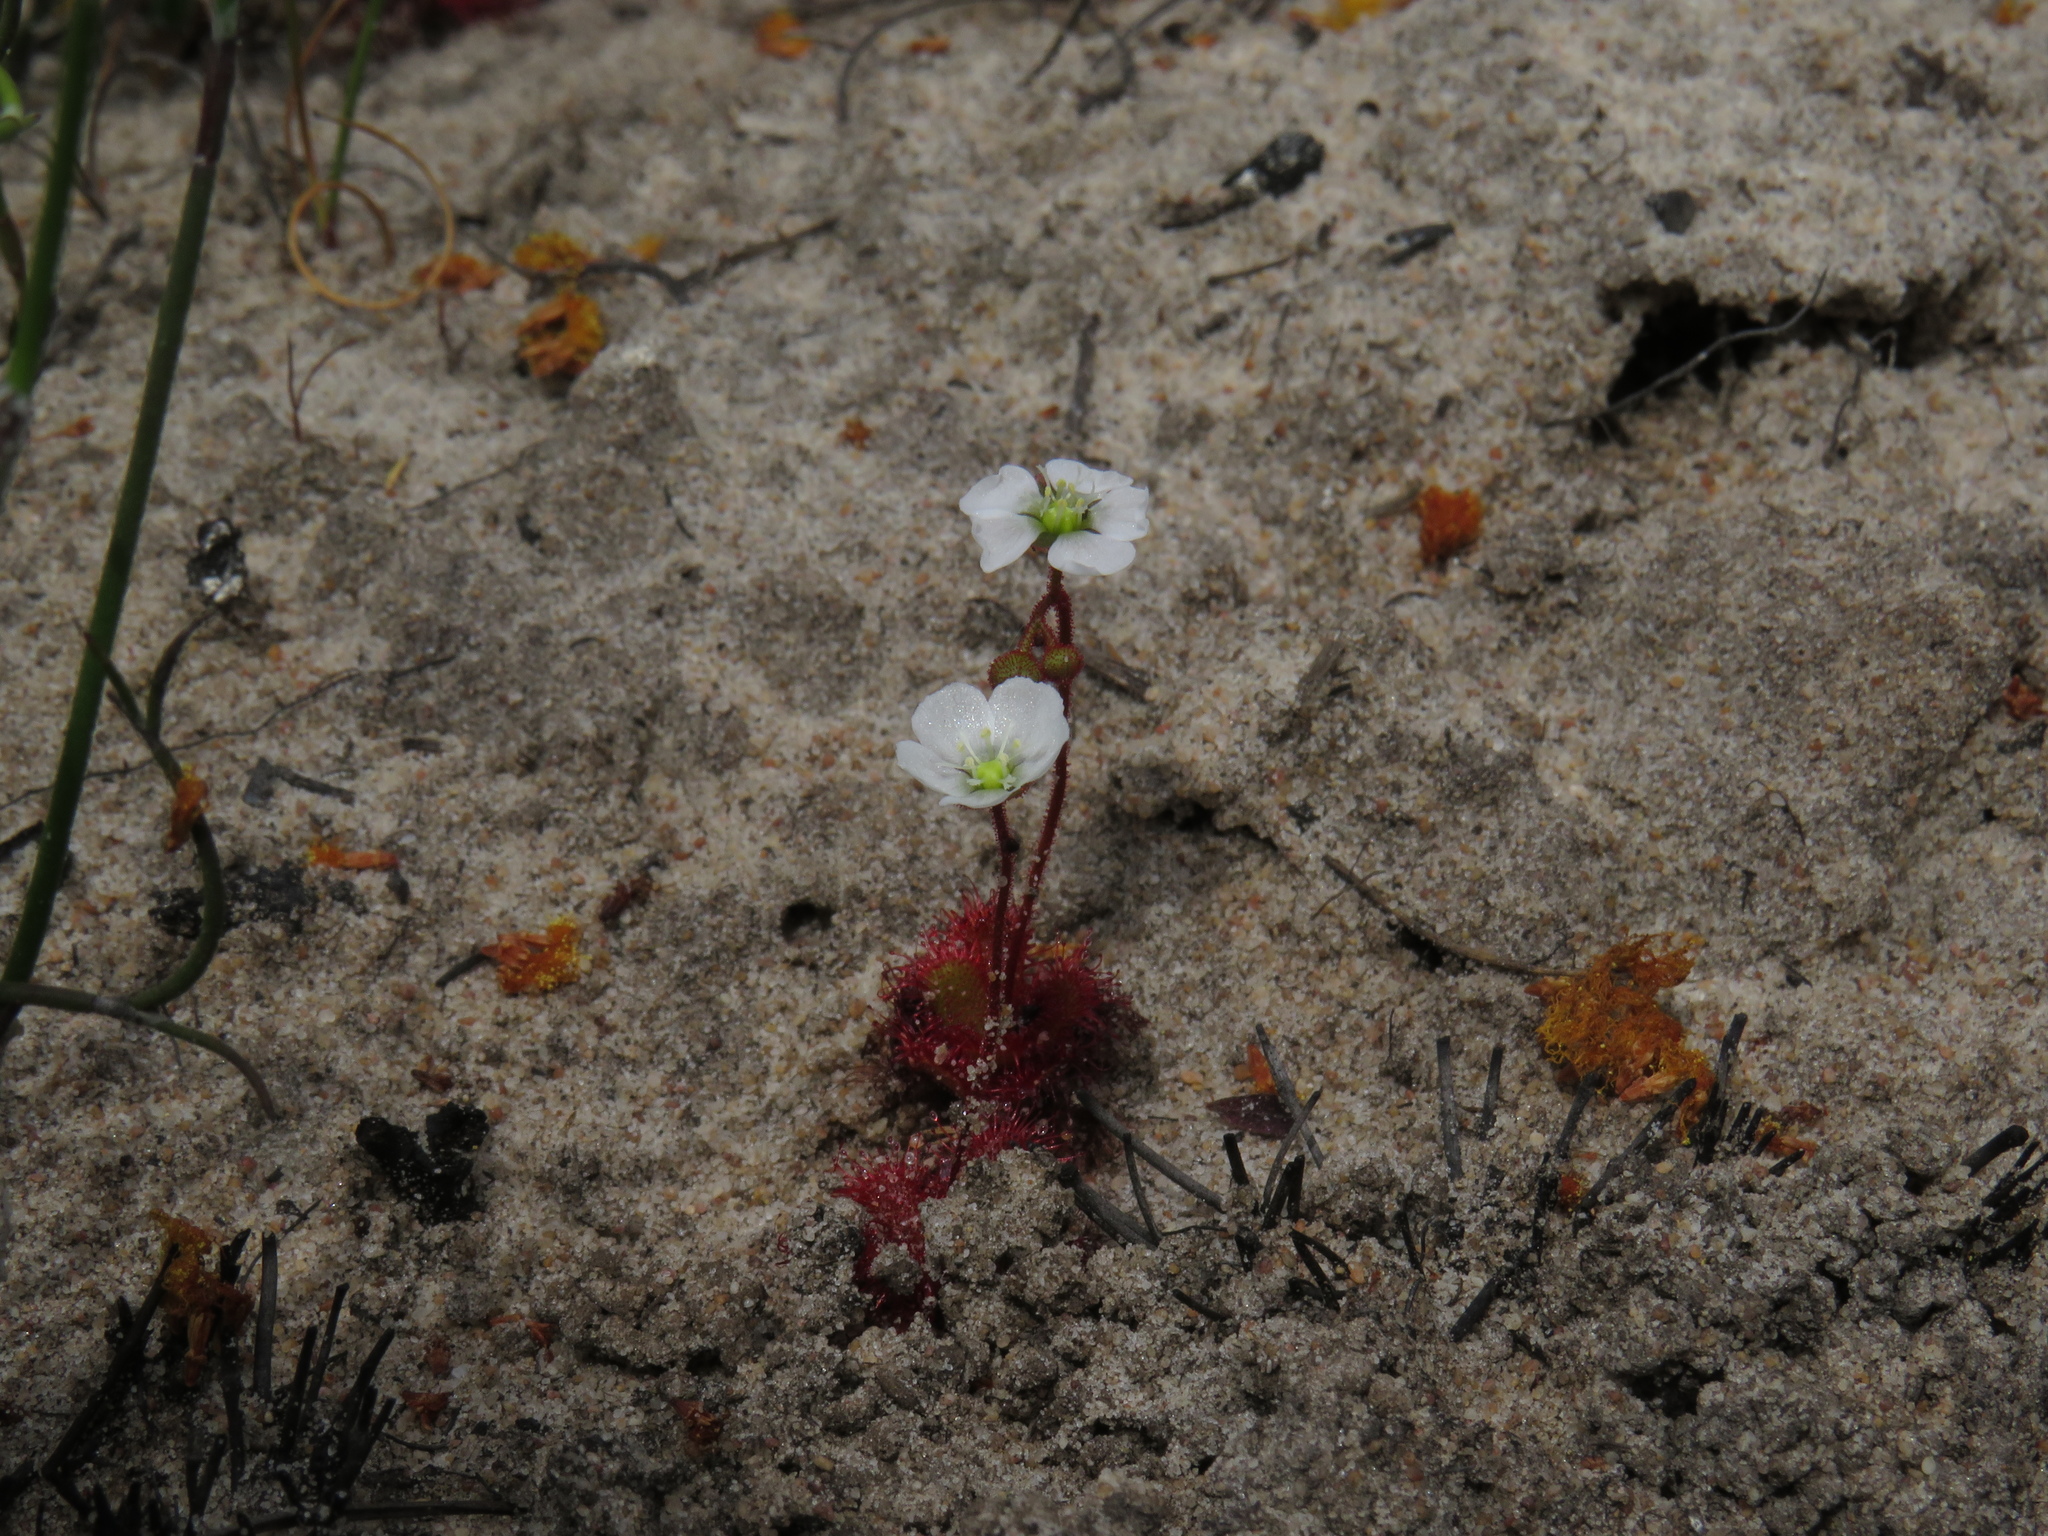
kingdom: Plantae
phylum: Tracheophyta
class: Magnoliopsida
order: Caryophyllales
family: Droseraceae
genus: Drosera
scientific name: Drosera trinervia
